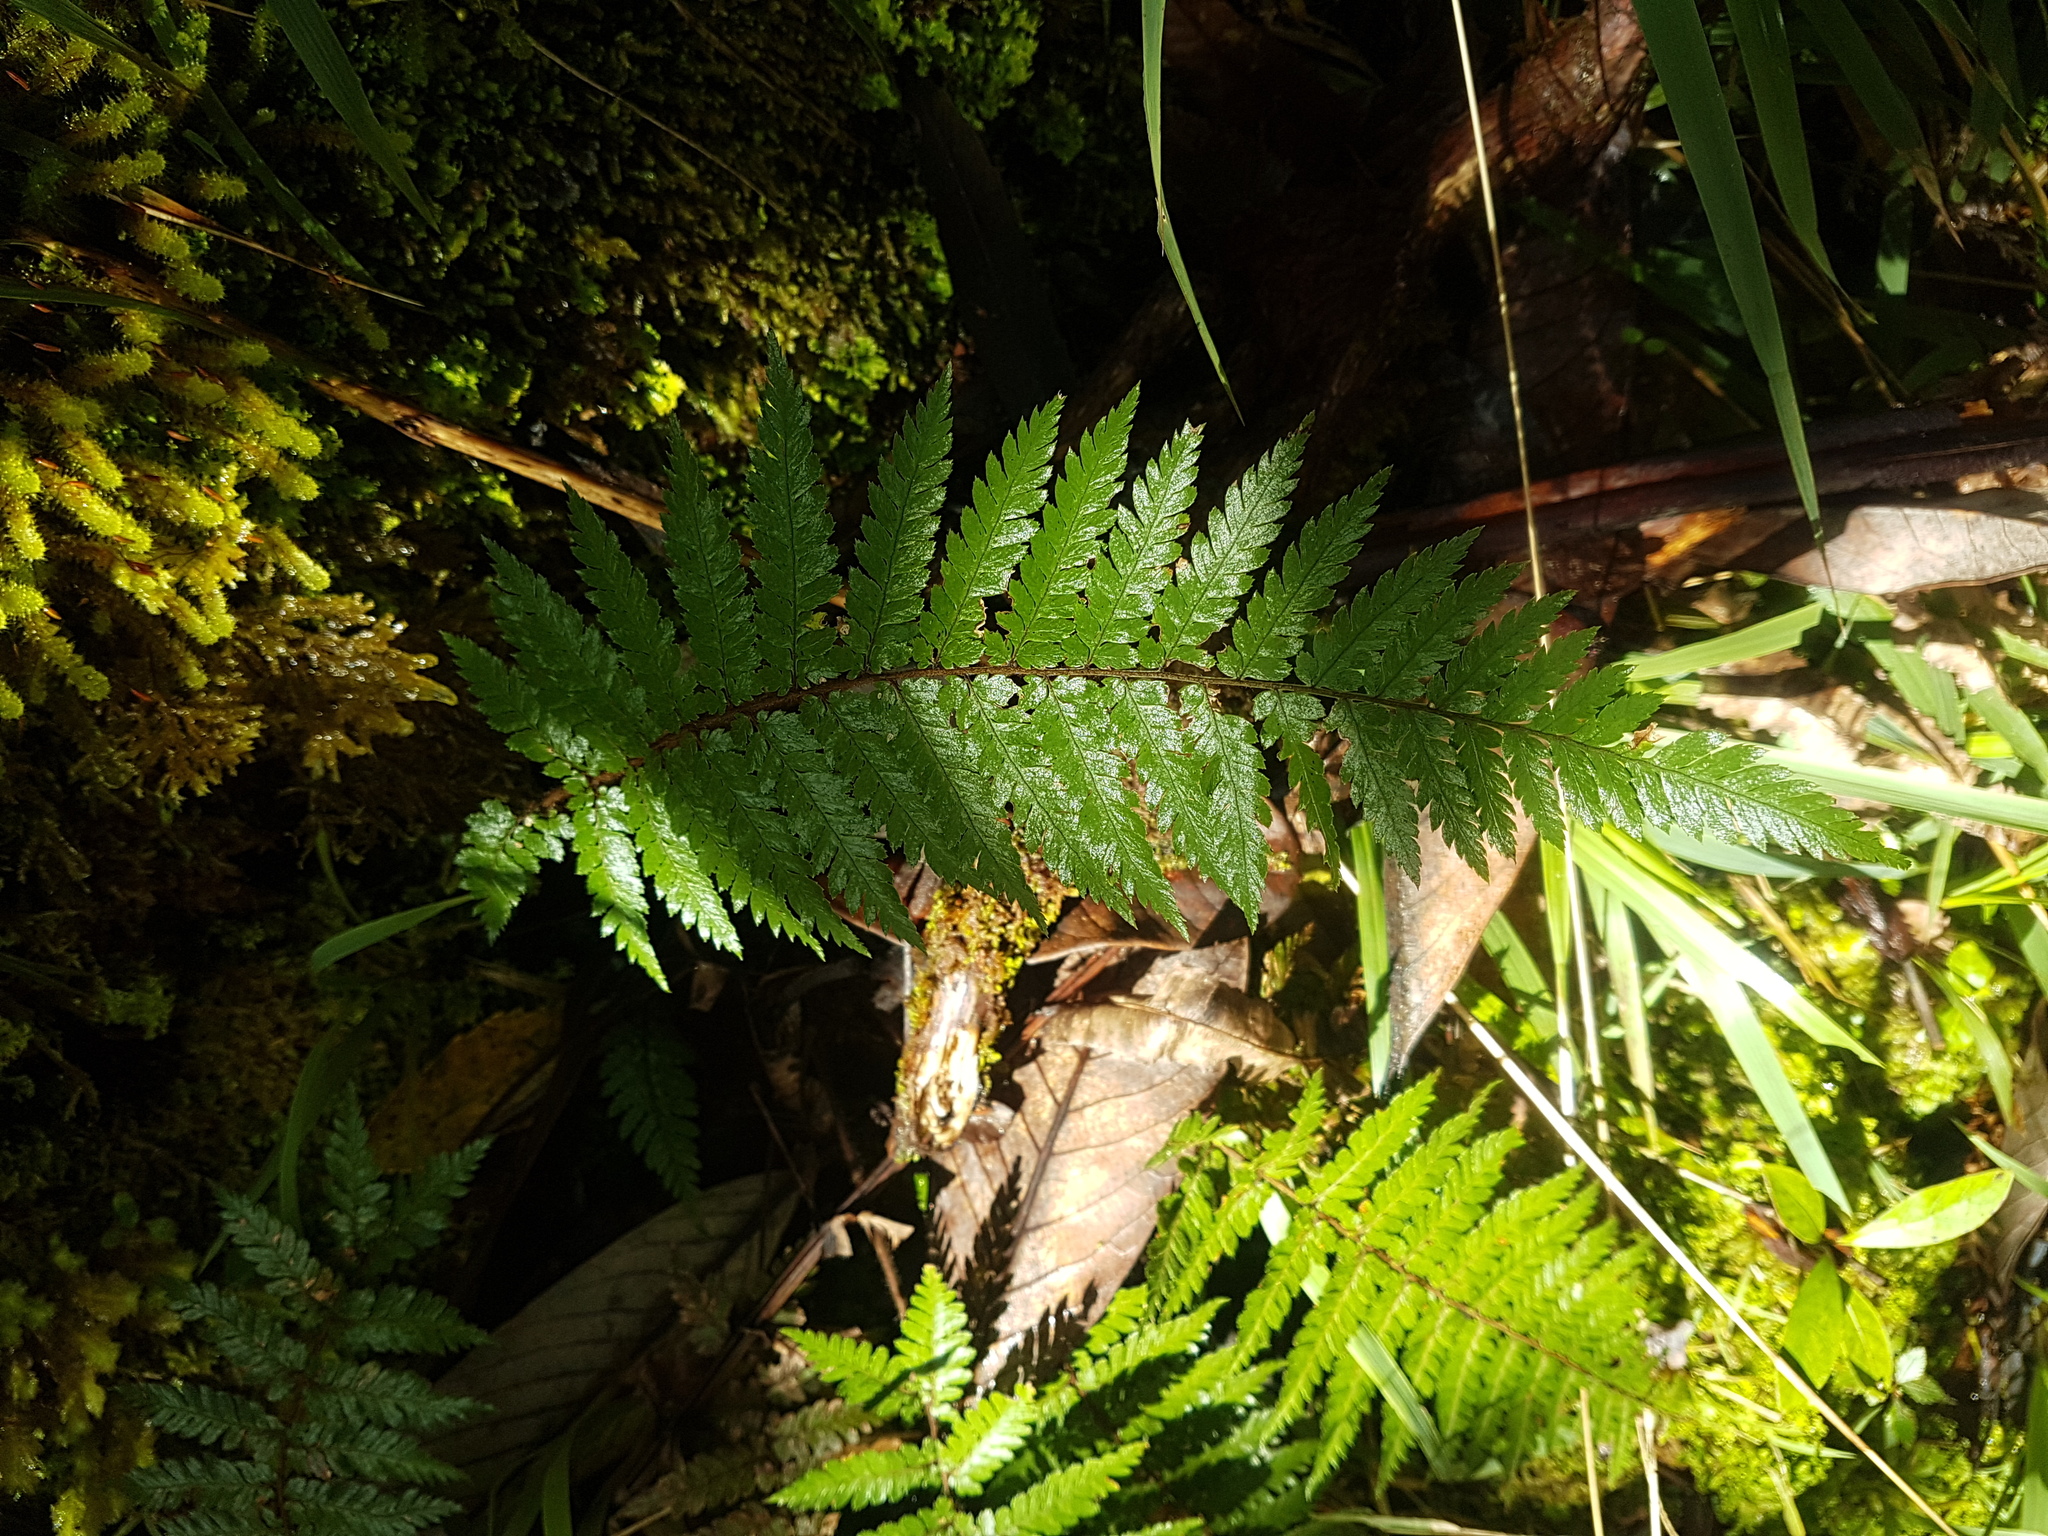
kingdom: Plantae
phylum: Tracheophyta
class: Polypodiopsida
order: Cyatheales
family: Dicksoniaceae
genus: Dicksonia
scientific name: Dicksonia squarrosa
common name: Hard treefern
